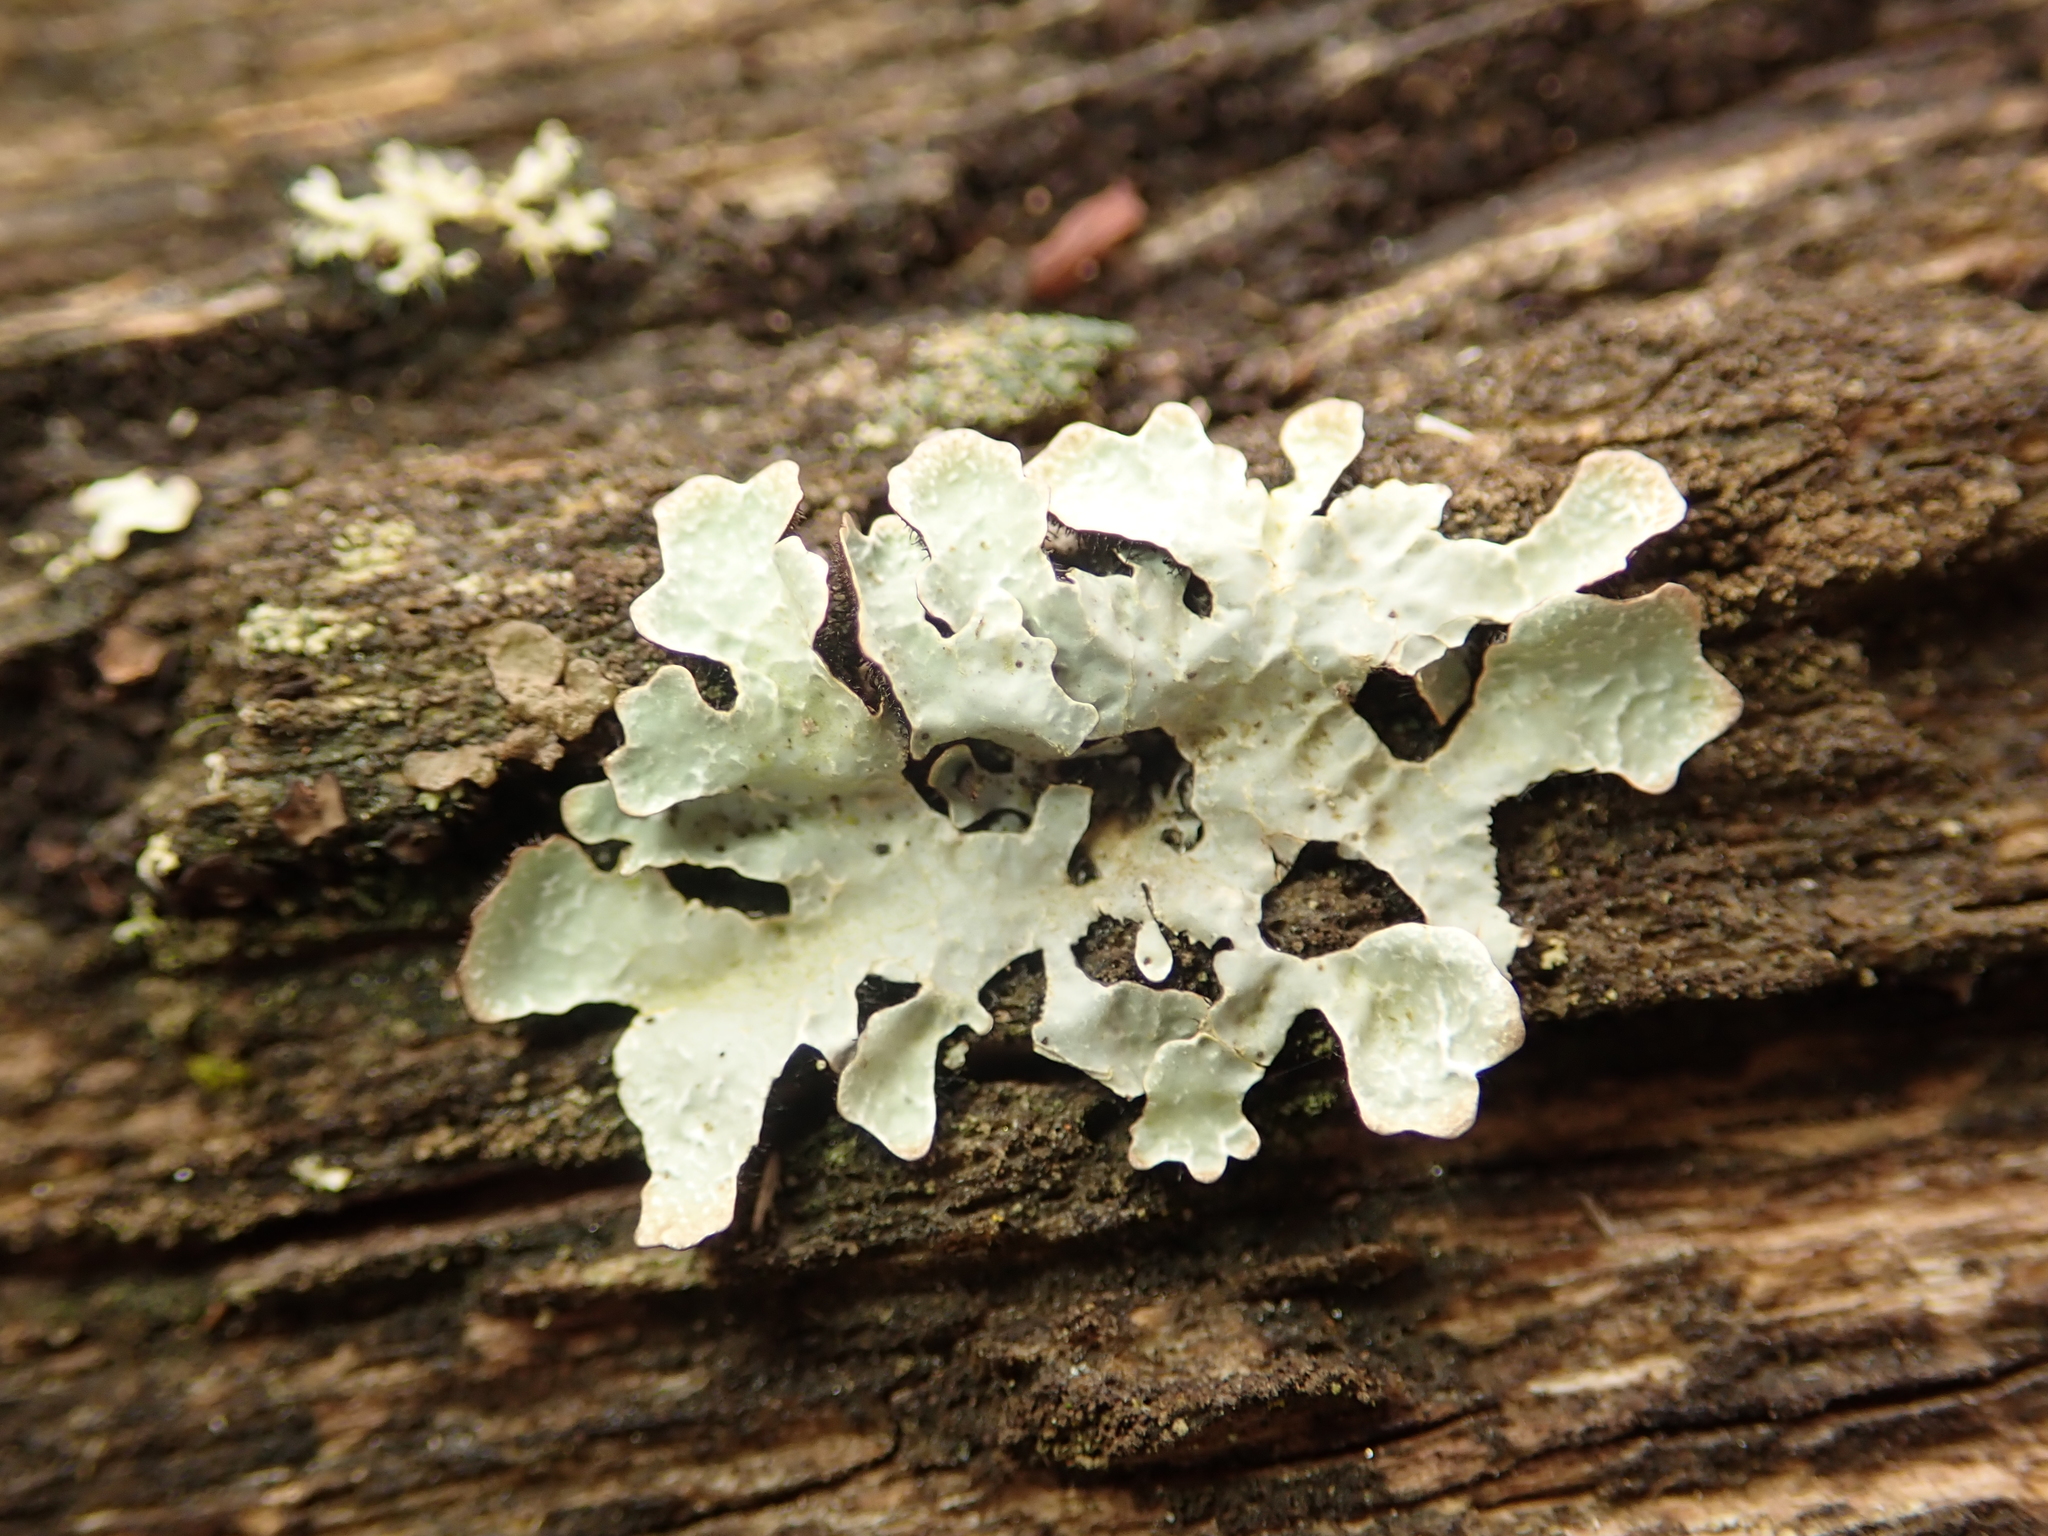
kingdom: Fungi
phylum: Ascomycota
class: Lecanoromycetes
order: Lecanorales
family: Parmeliaceae
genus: Parmelia
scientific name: Parmelia sulcata
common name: Netted shield lichen
